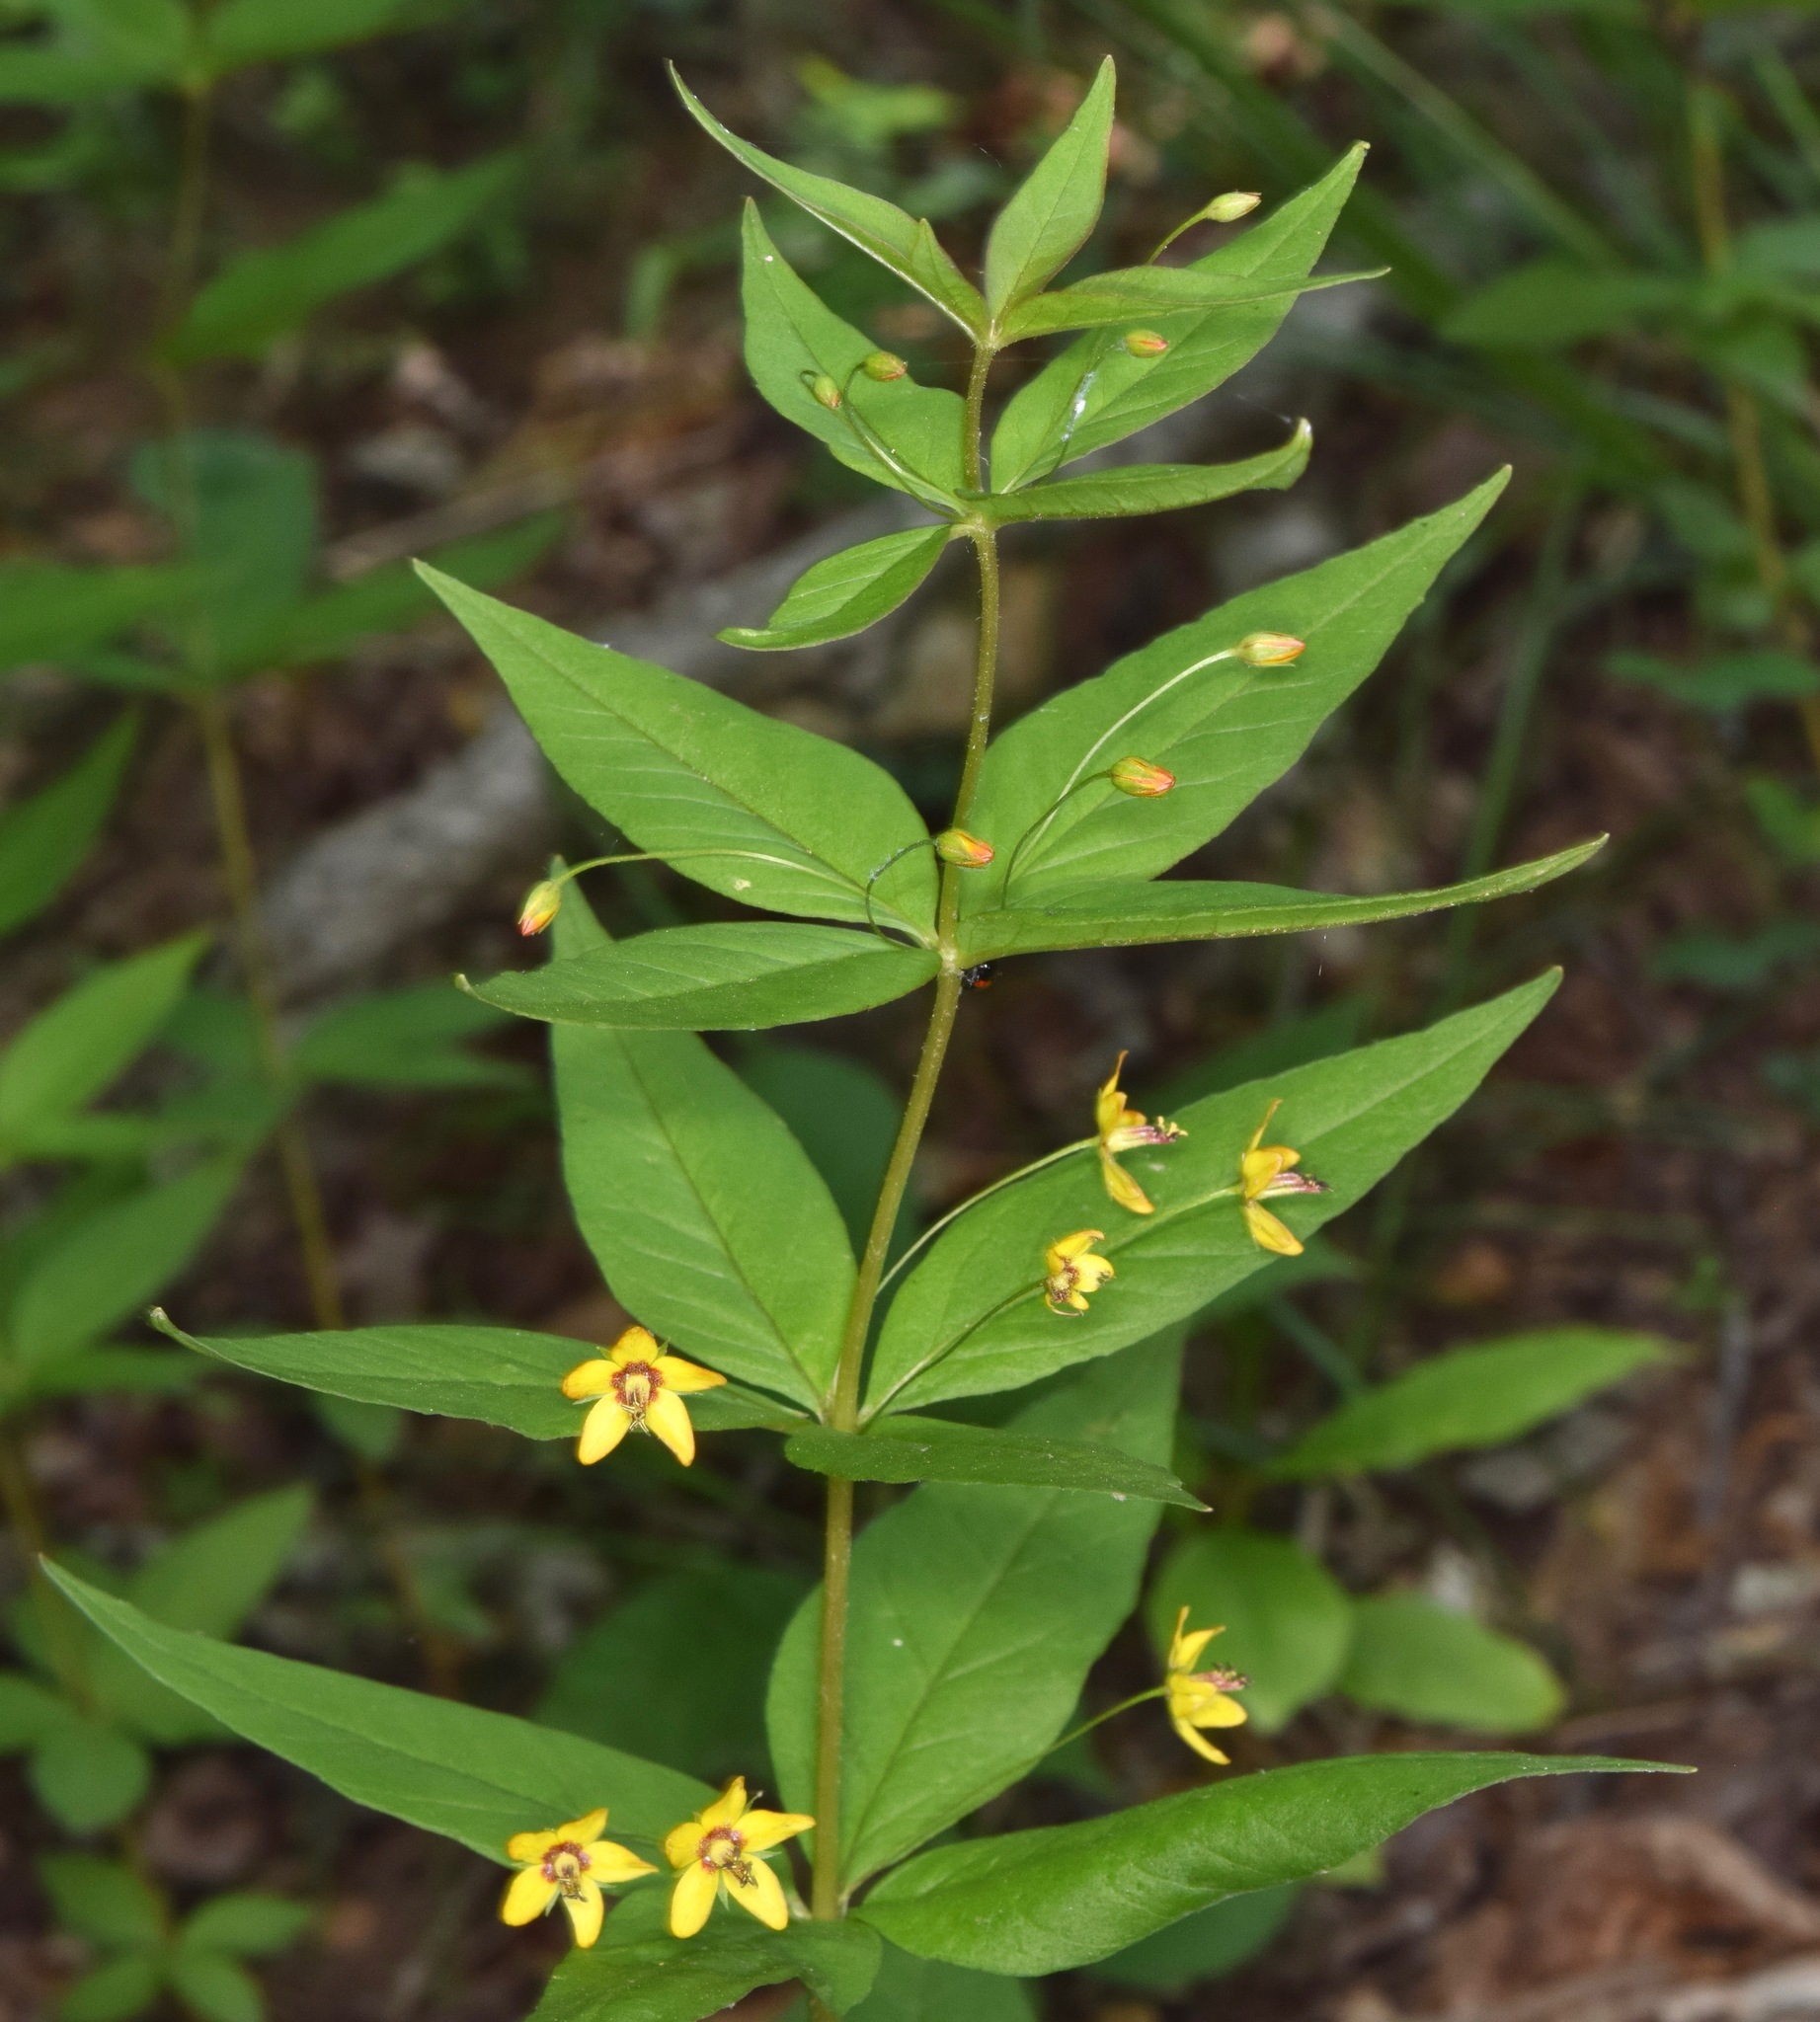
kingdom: Plantae
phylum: Tracheophyta
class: Magnoliopsida
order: Ericales
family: Primulaceae
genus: Lysimachia
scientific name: Lysimachia quadrifolia
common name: Whorled loosestrife
